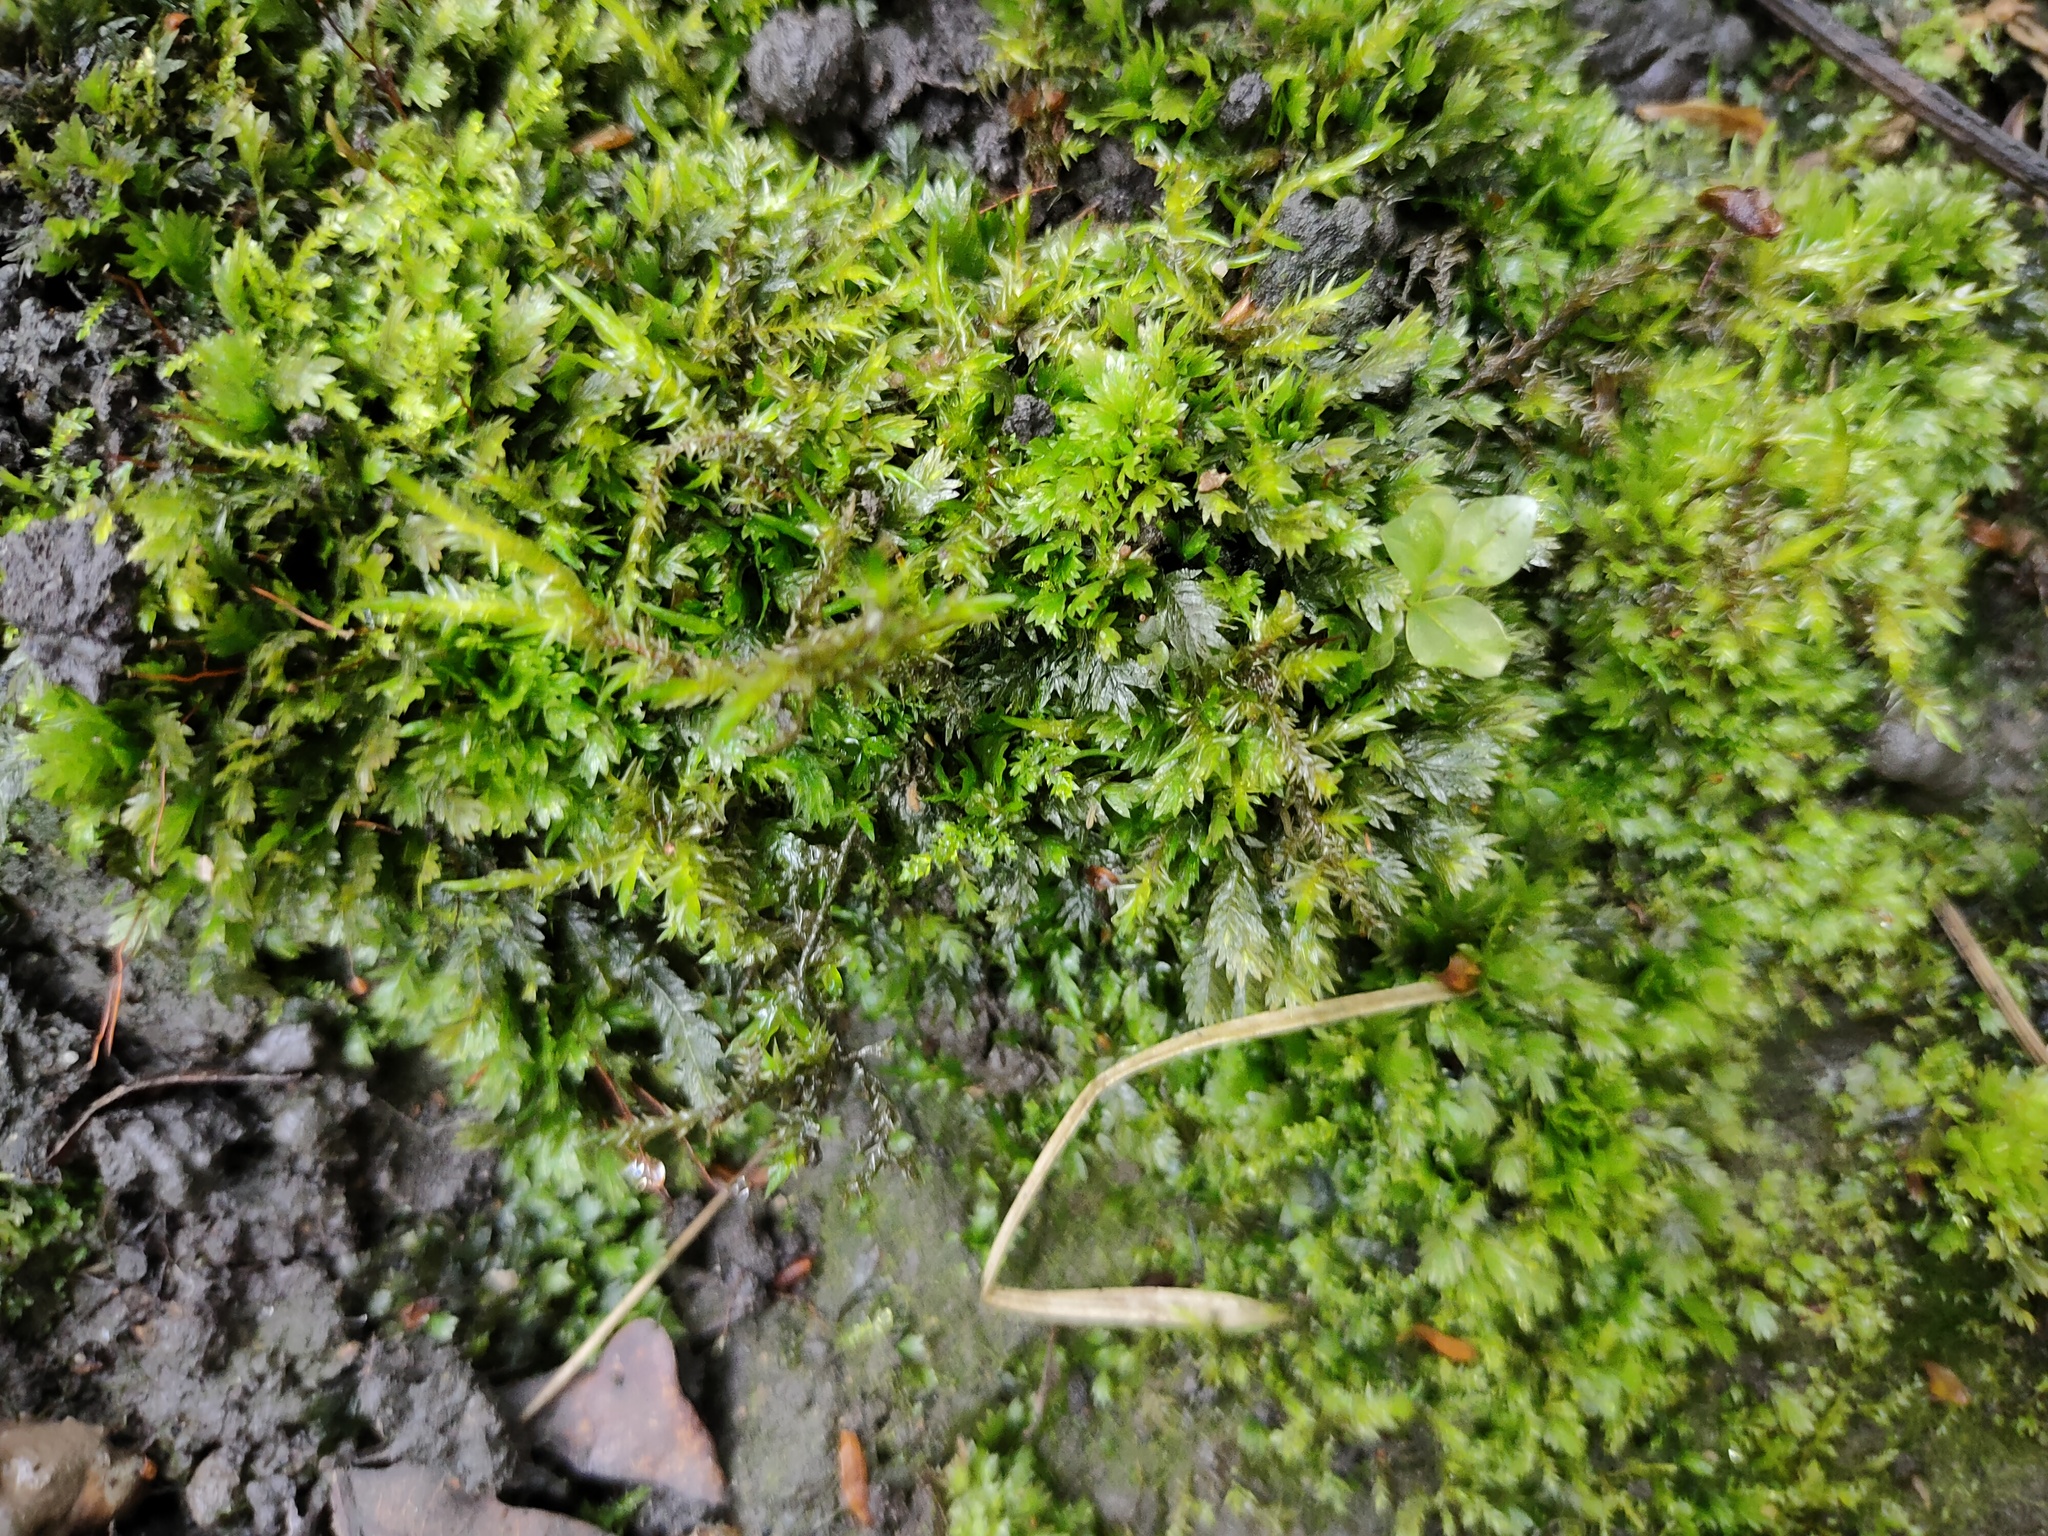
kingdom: Plantae
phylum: Bryophyta
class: Bryopsida
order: Hypnales
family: Pylaisiaceae
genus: Calliergonella
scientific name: Calliergonella cuspidata
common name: Common large wetland moss
